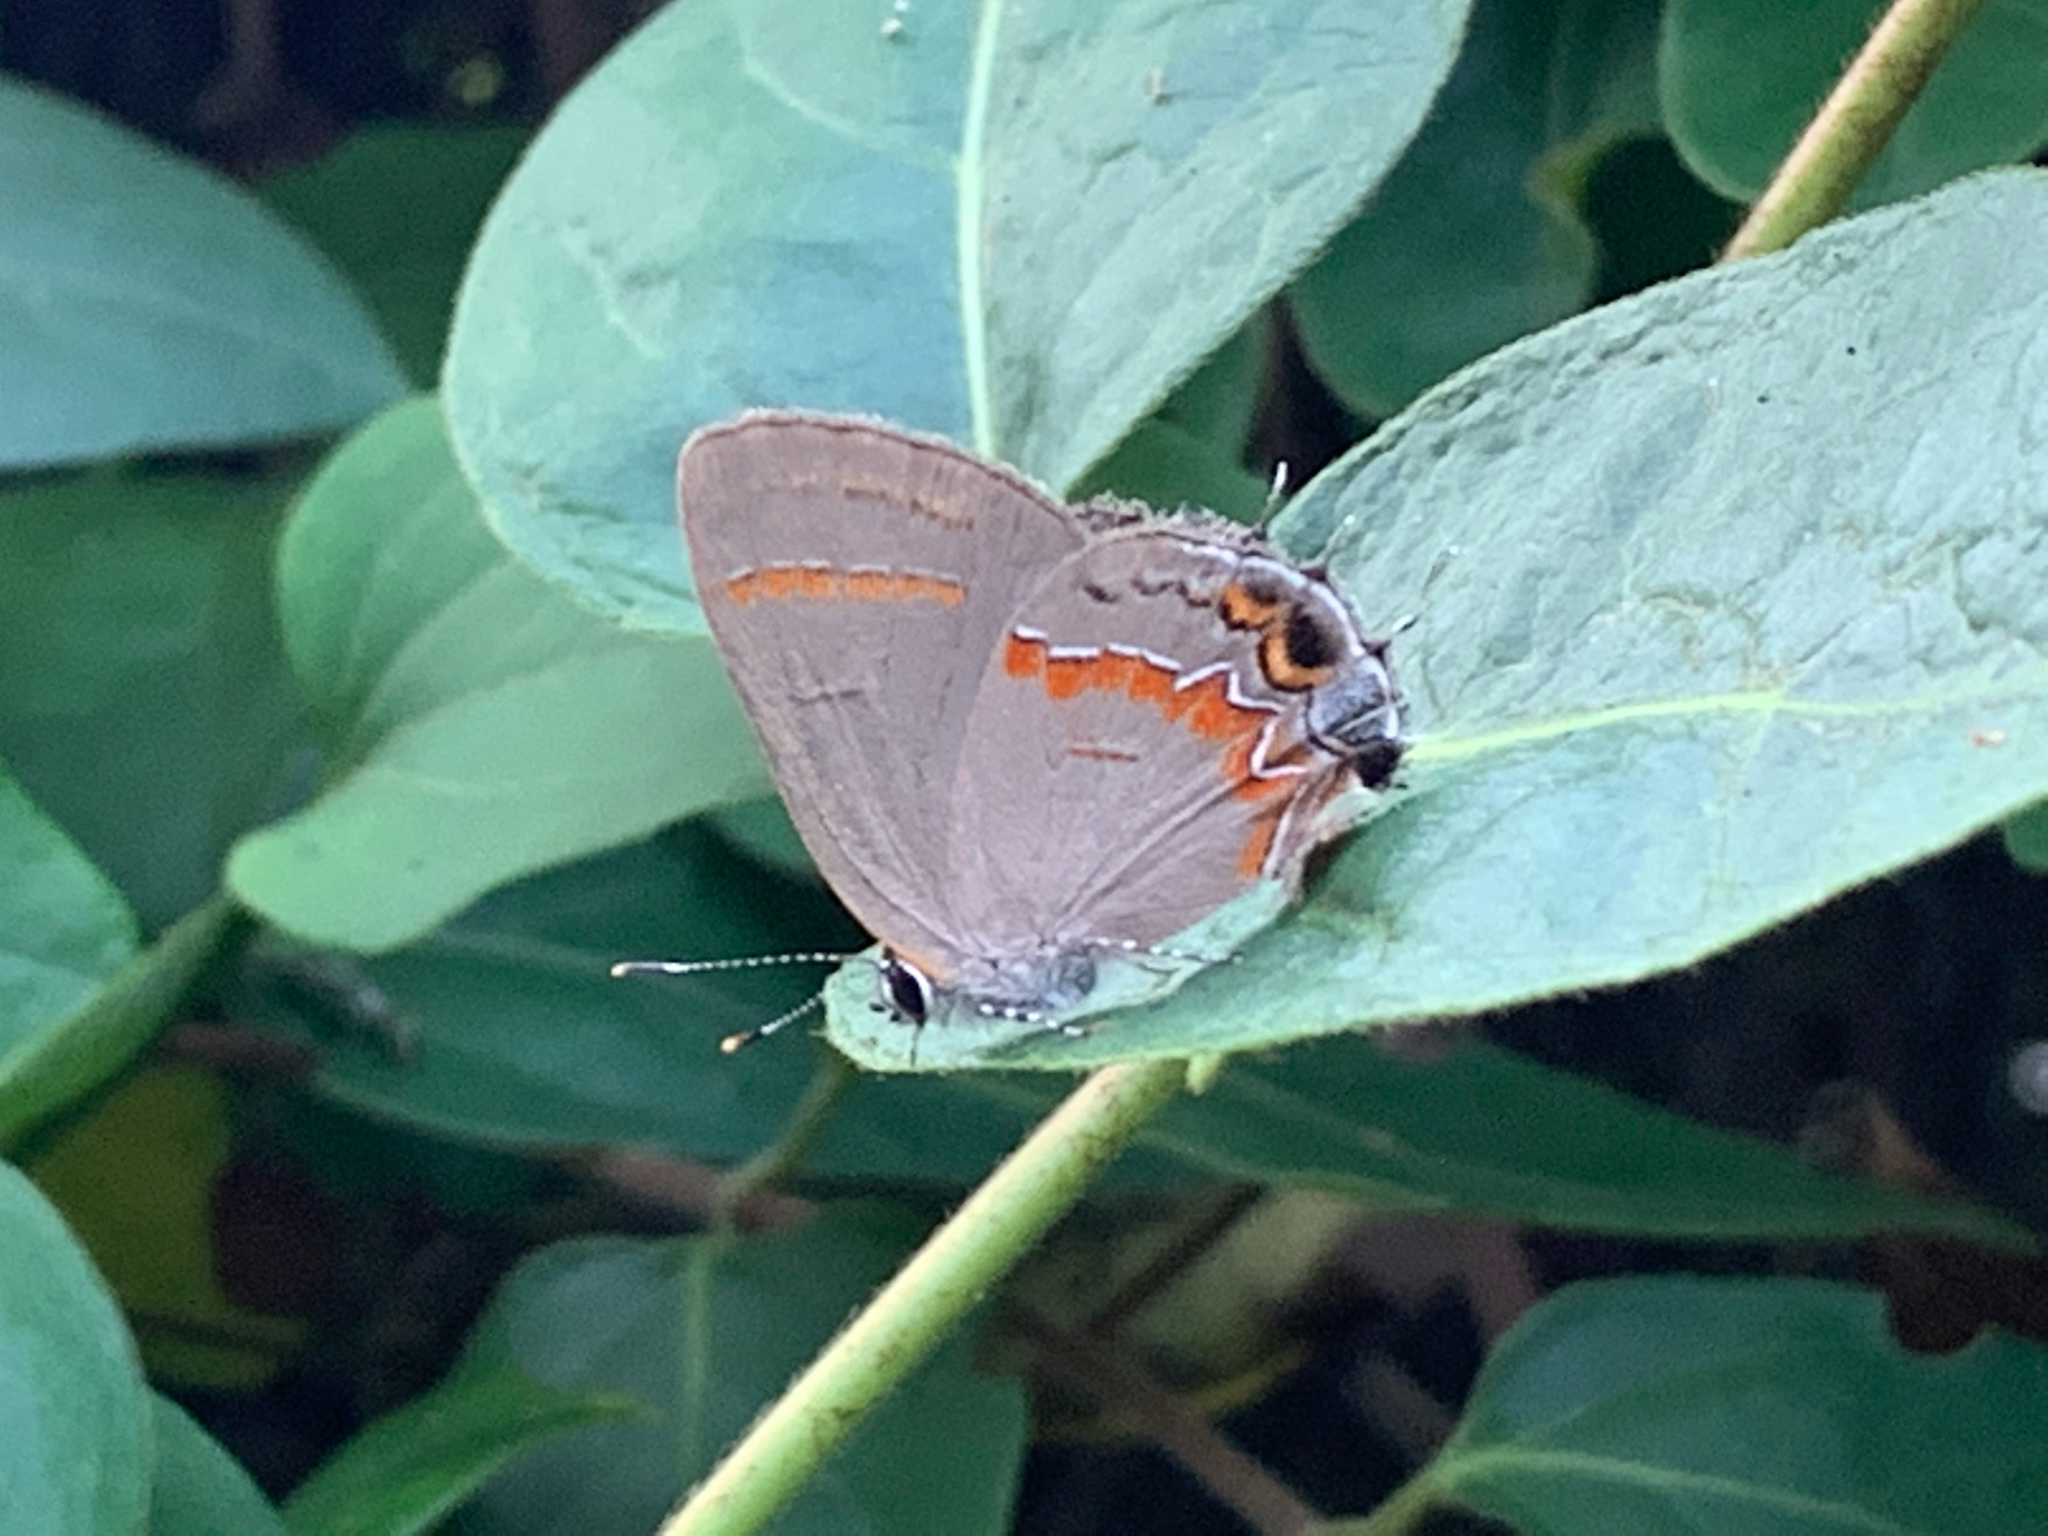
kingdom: Animalia
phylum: Arthropoda
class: Insecta
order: Lepidoptera
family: Lycaenidae
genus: Calycopis
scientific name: Calycopis cecrops
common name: Red-banded hairstreak
